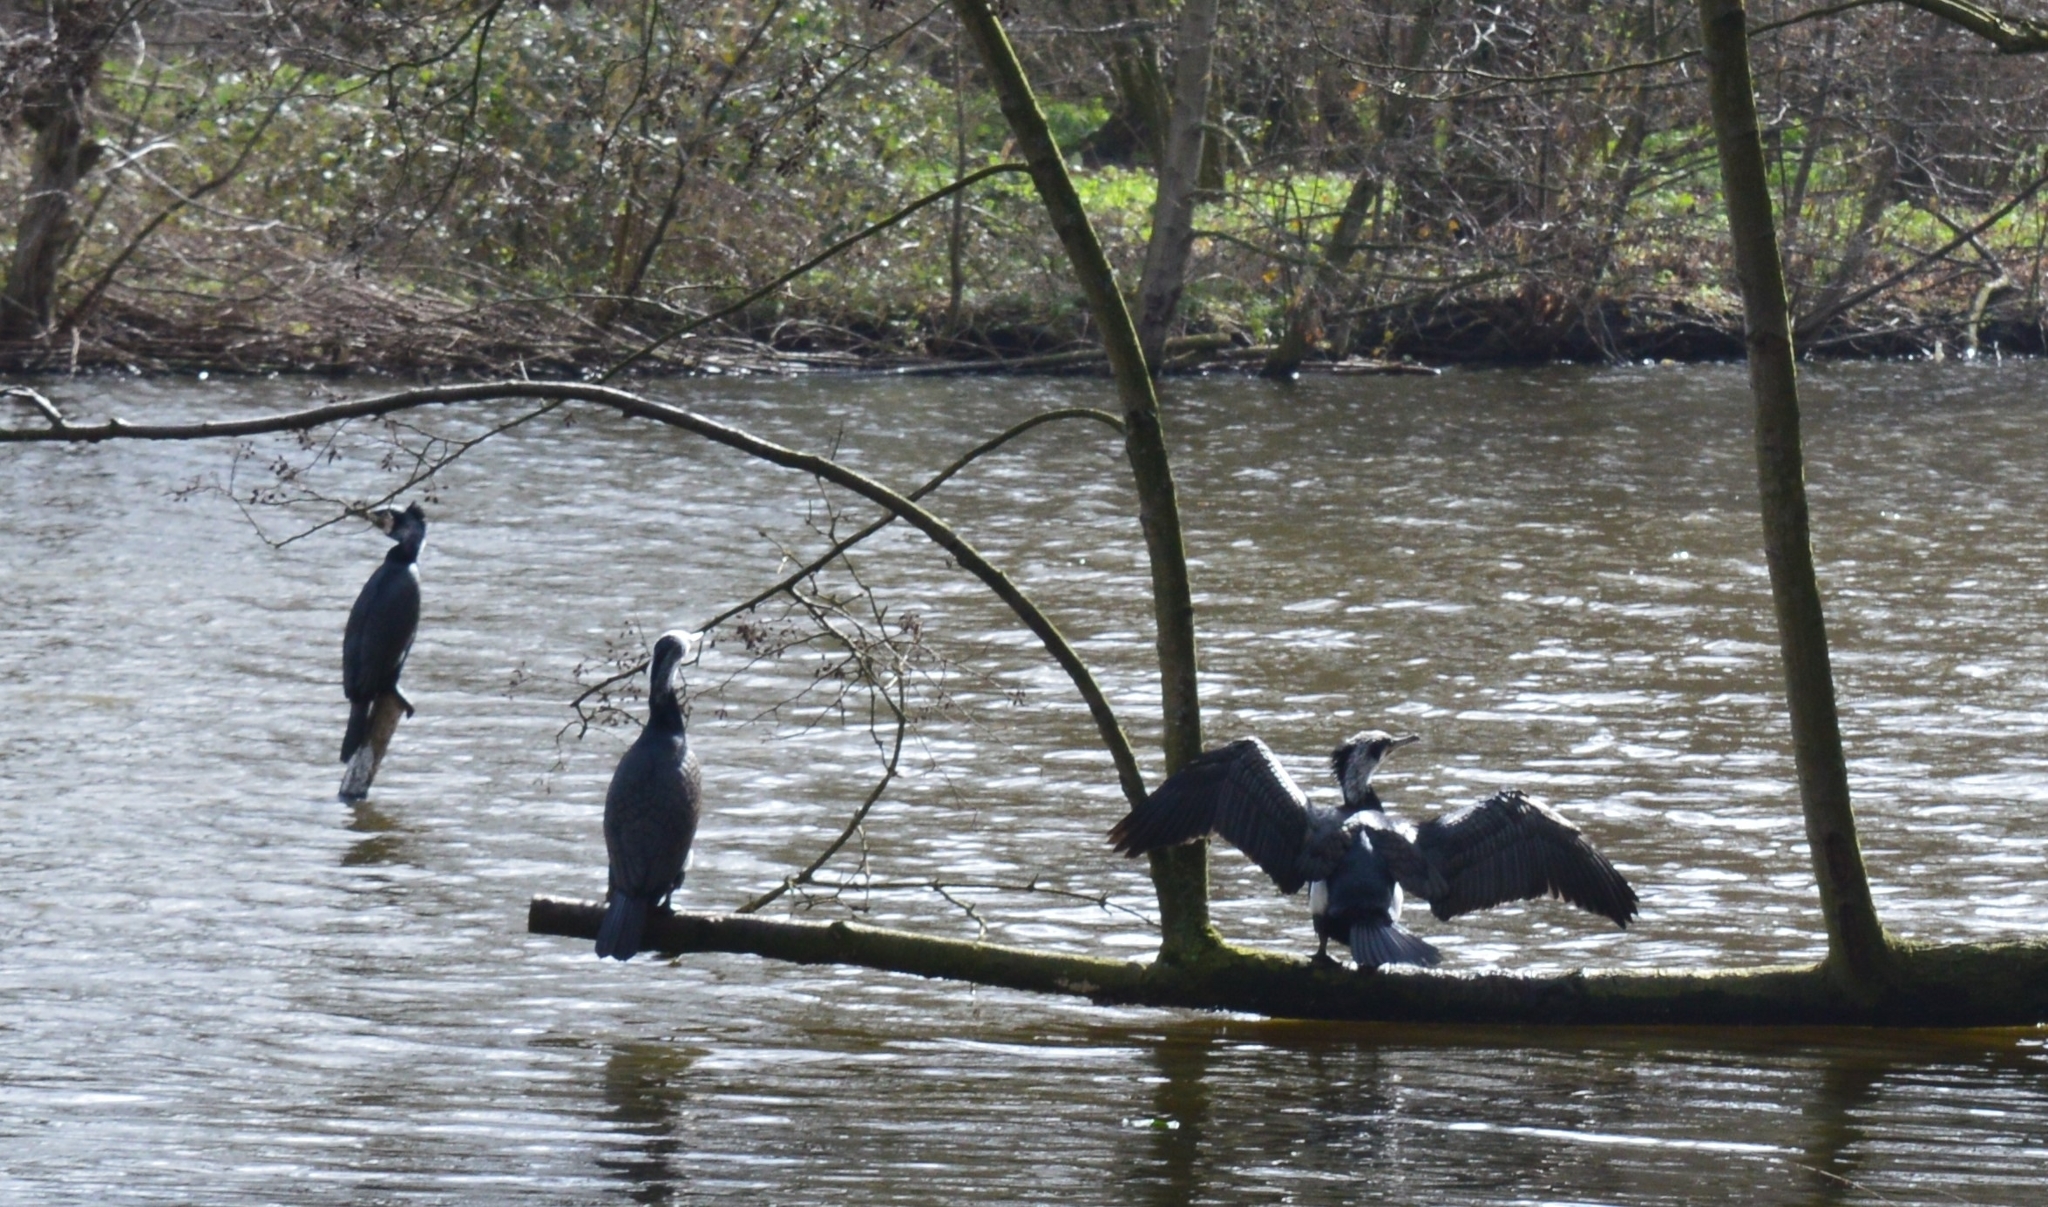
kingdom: Animalia
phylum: Chordata
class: Aves
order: Suliformes
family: Phalacrocoracidae
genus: Phalacrocorax
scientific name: Phalacrocorax carbo
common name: Great cormorant
